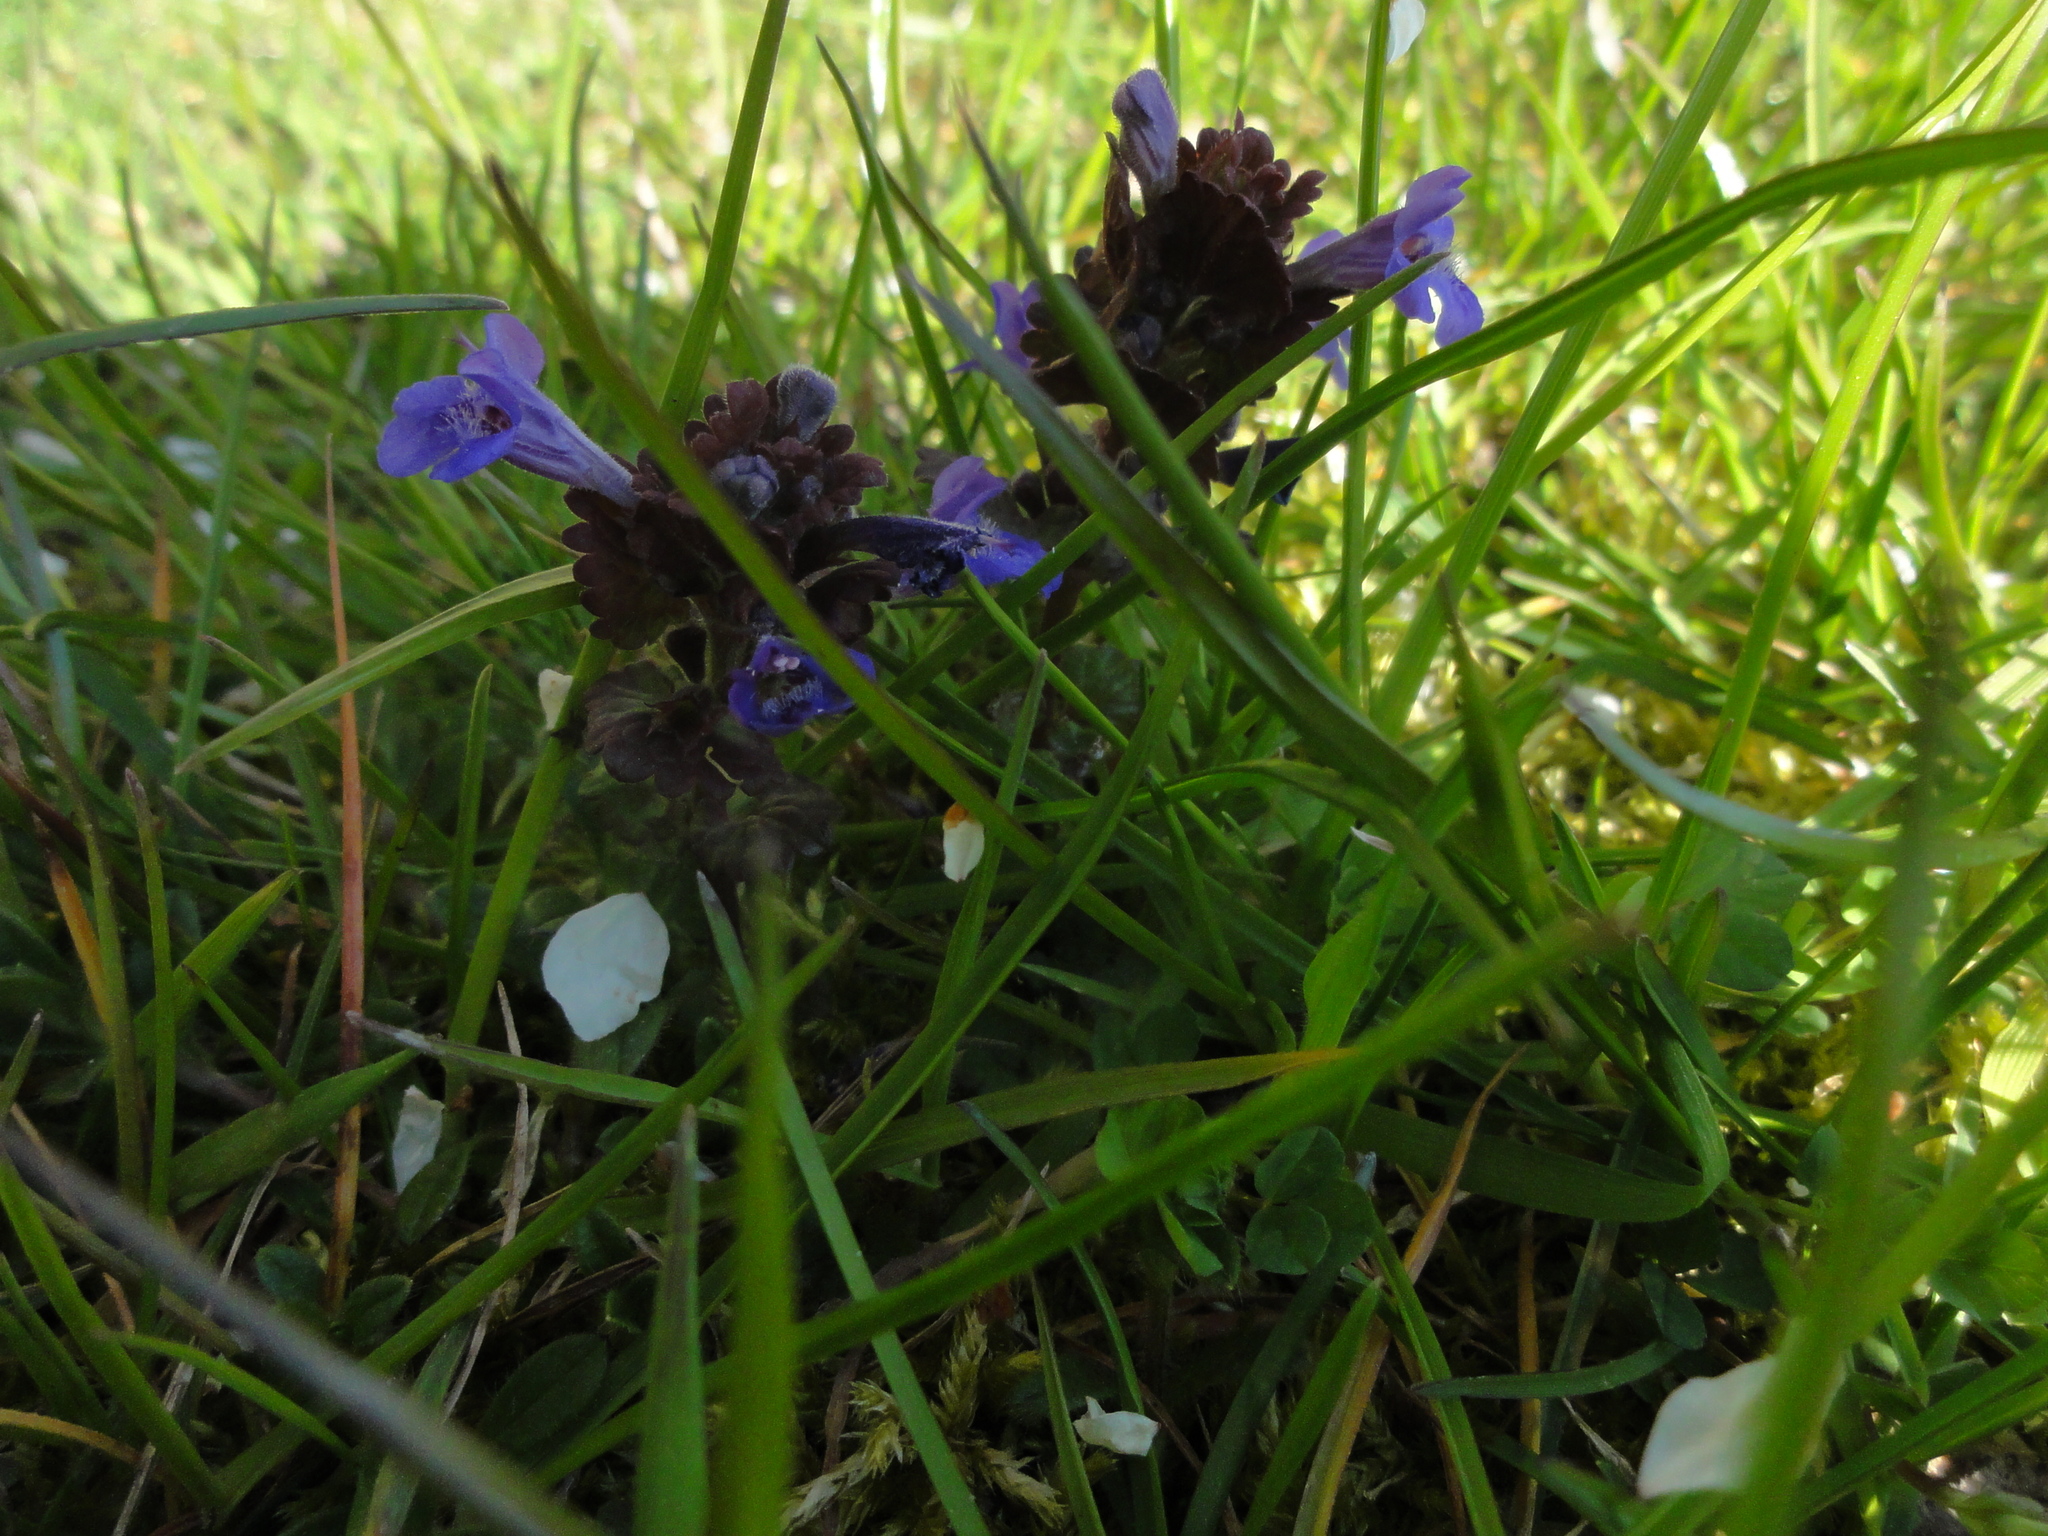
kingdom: Plantae
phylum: Tracheophyta
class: Magnoliopsida
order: Lamiales
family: Lamiaceae
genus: Glechoma
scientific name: Glechoma hederacea
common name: Ground ivy
